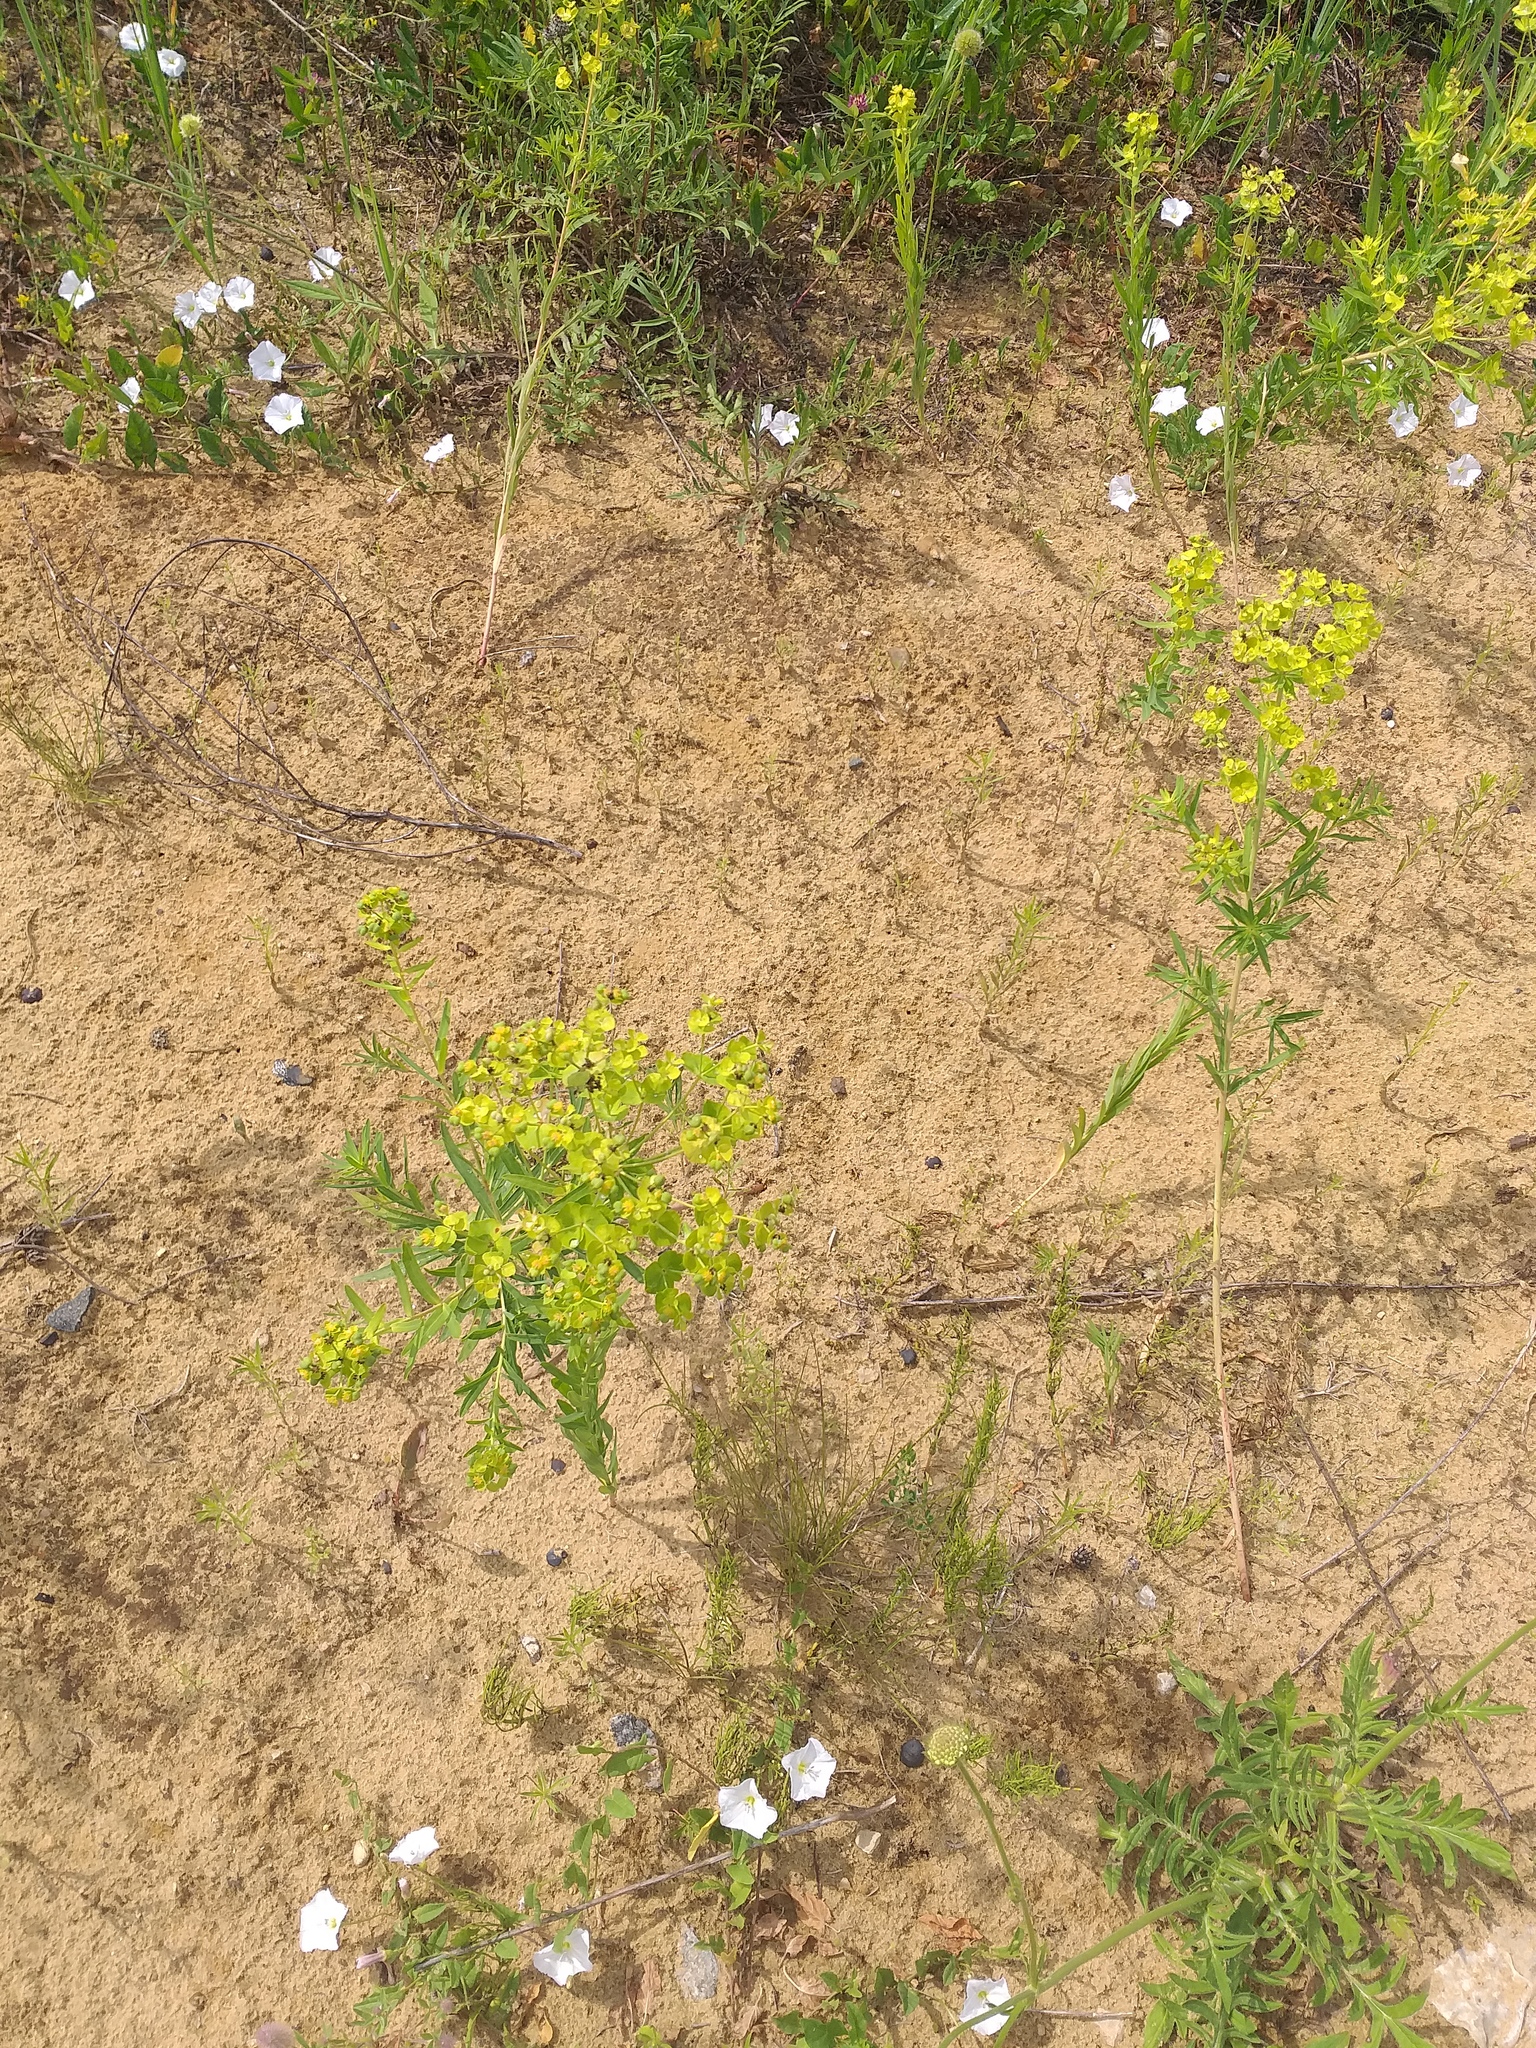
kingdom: Plantae
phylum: Tracheophyta
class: Magnoliopsida
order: Malpighiales
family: Euphorbiaceae
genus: Euphorbia
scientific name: Euphorbia virgata
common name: Leafy spurge
